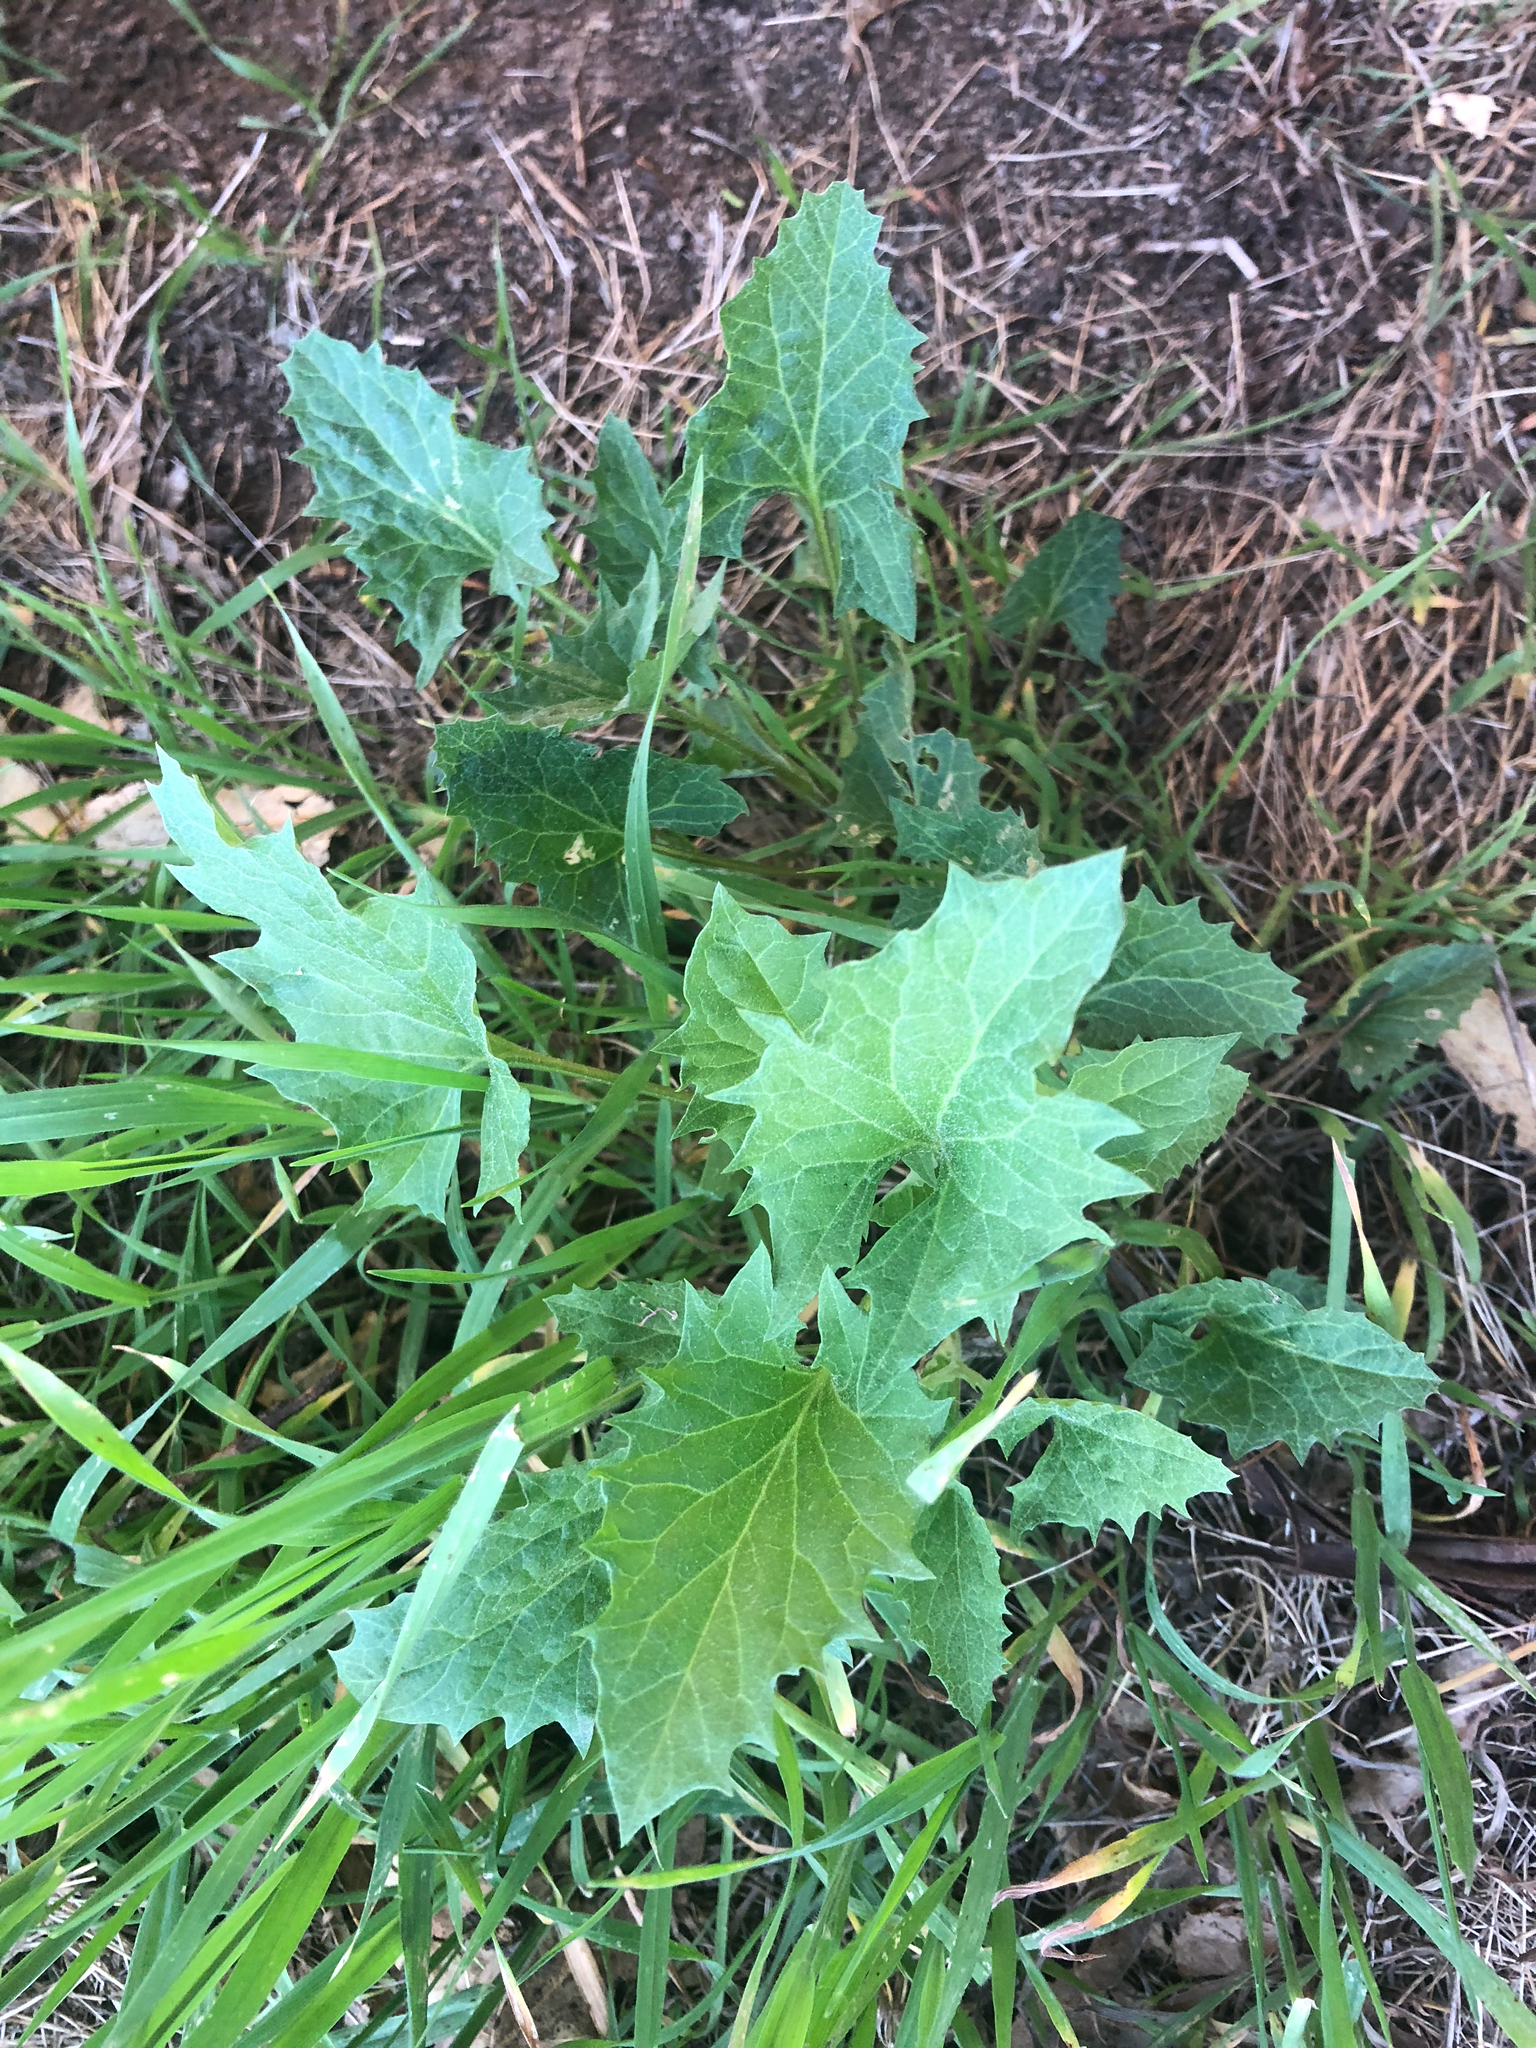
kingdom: Plantae
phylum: Tracheophyta
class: Magnoliopsida
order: Caryophyllales
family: Amaranthaceae
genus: Blitum
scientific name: Blitum californicum
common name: California goosefoot
